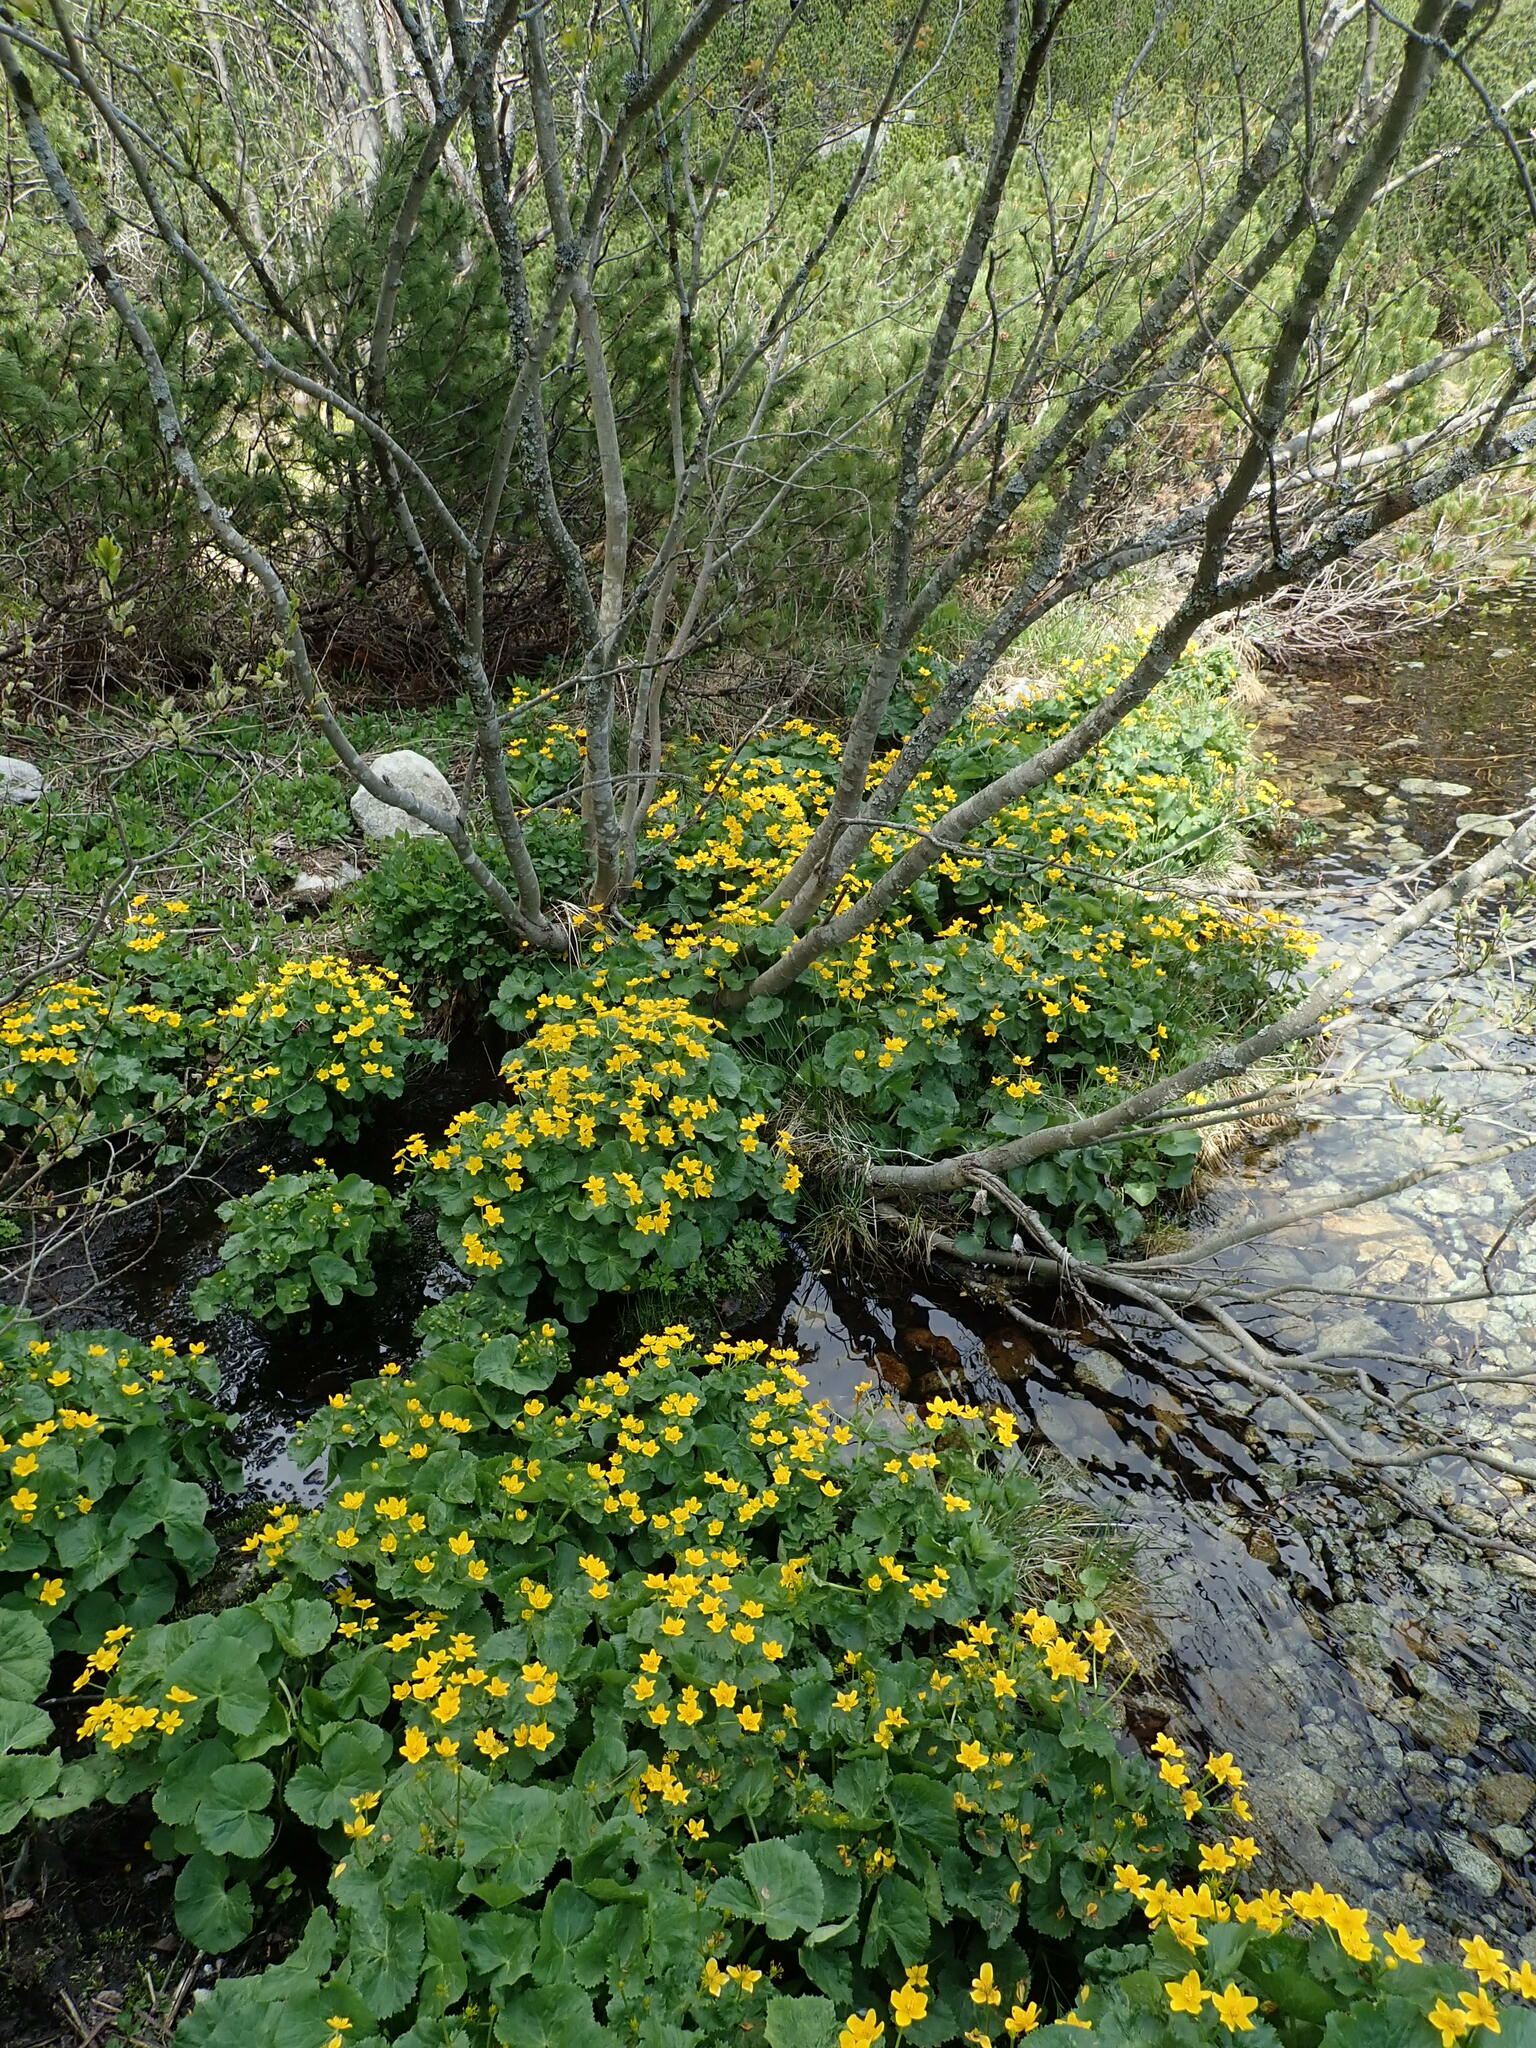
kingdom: Plantae
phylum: Tracheophyta
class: Magnoliopsida
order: Ranunculales
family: Ranunculaceae
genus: Caltha
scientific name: Caltha palustris
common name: Marsh marigold
